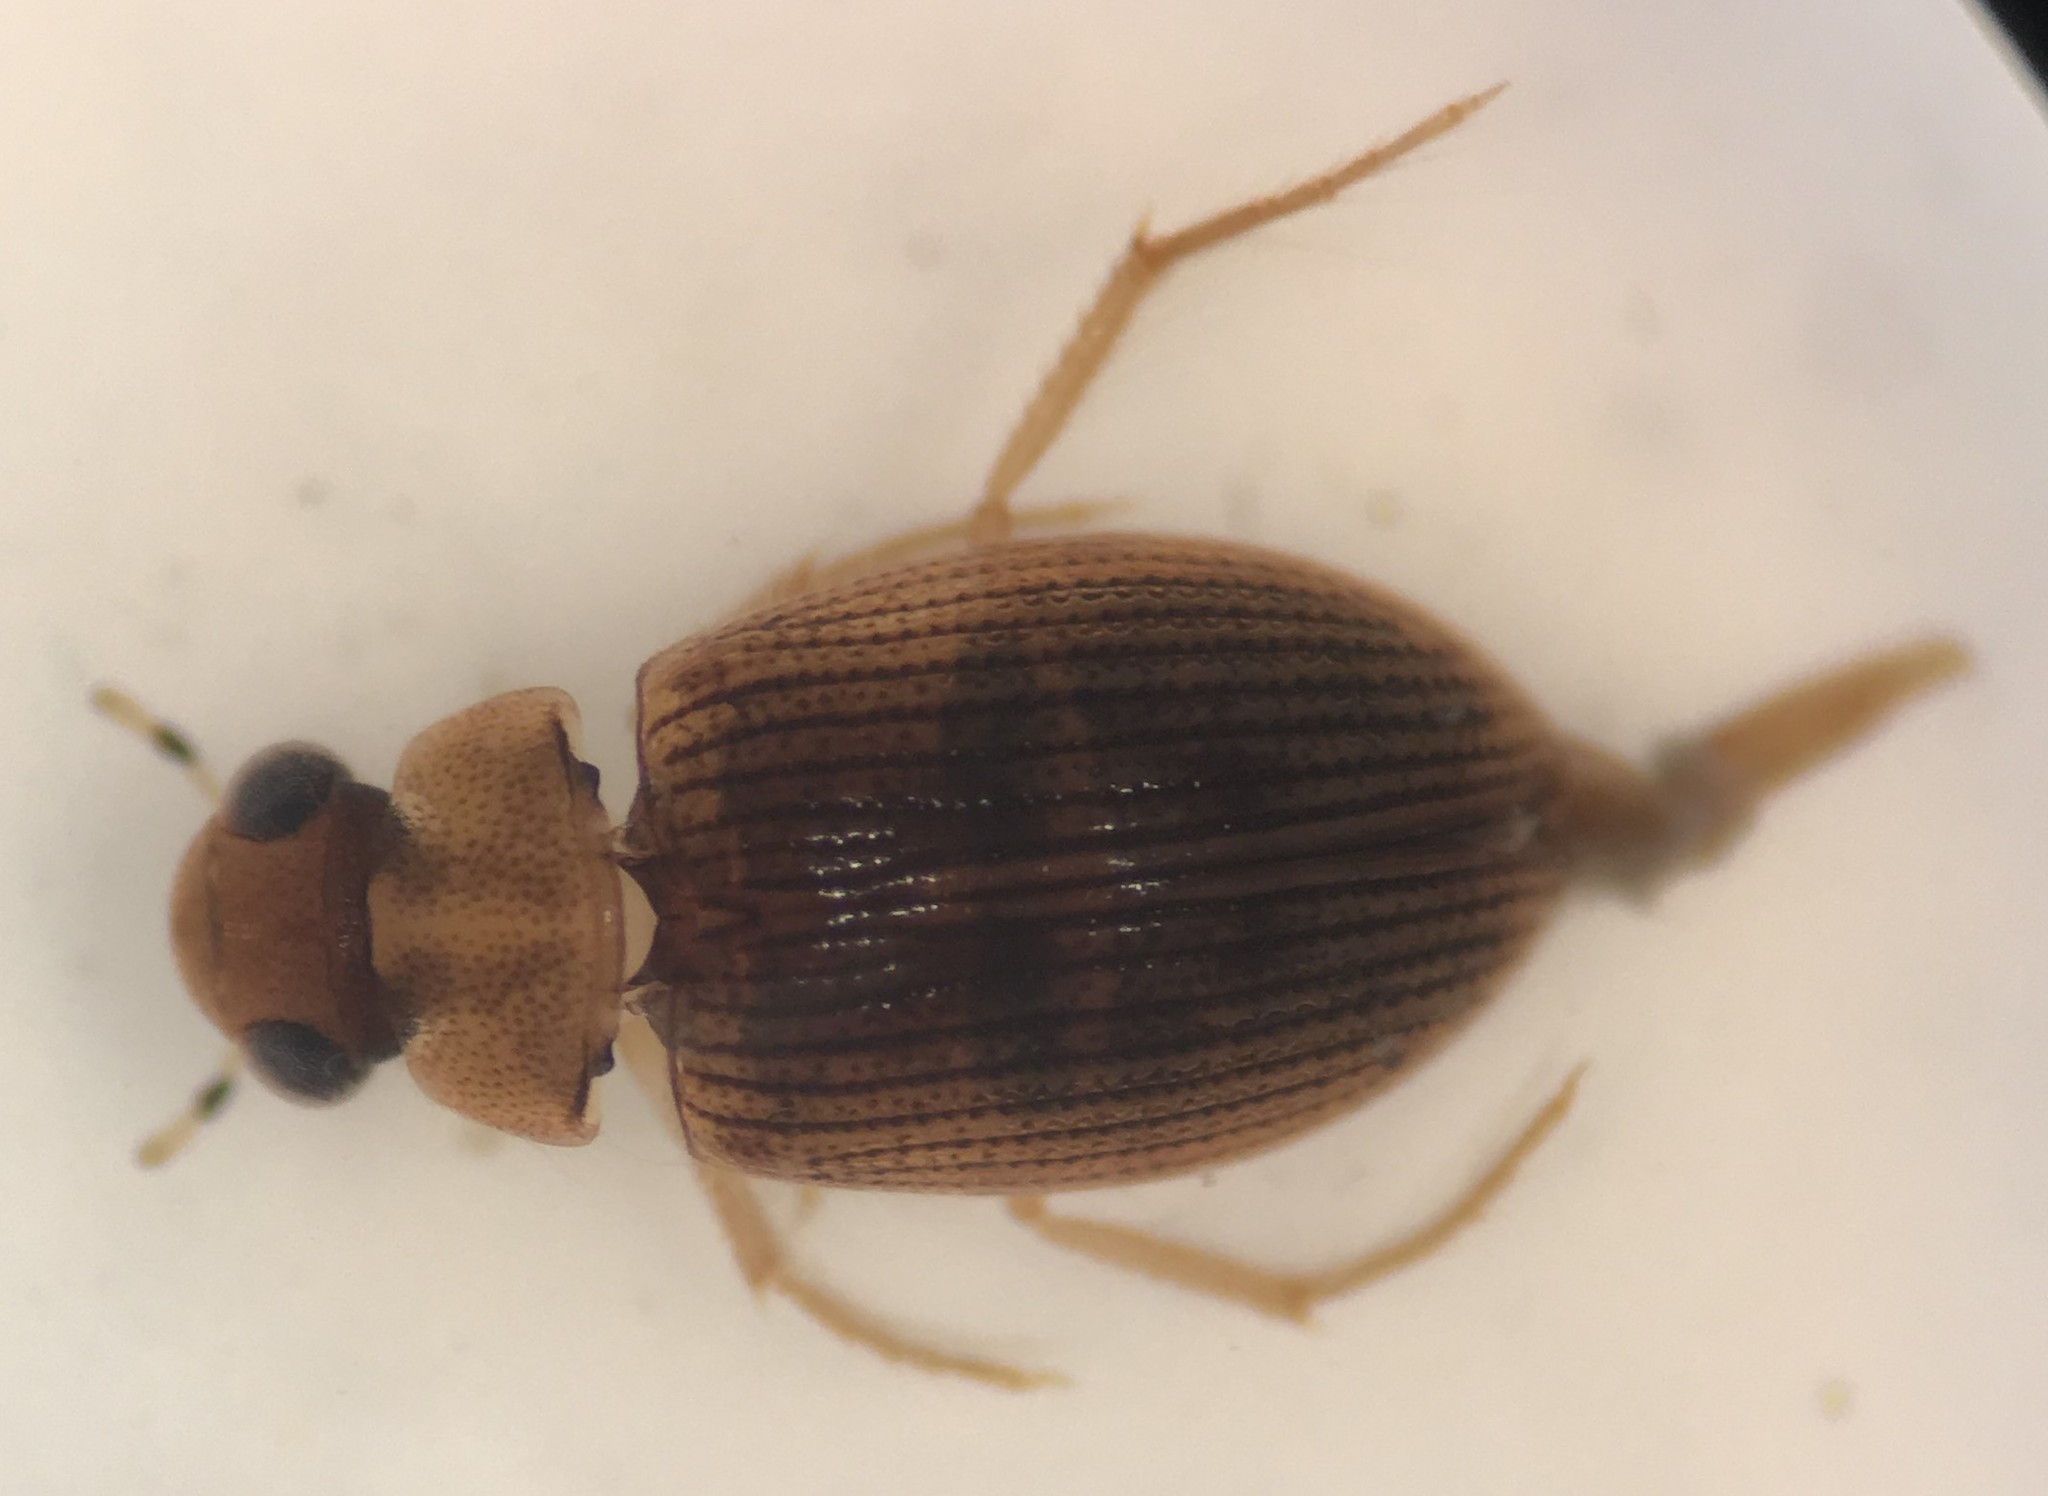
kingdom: Animalia
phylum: Arthropoda
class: Insecta
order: Coleoptera
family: Hydrophilidae
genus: Berosus
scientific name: Berosus exiguus
